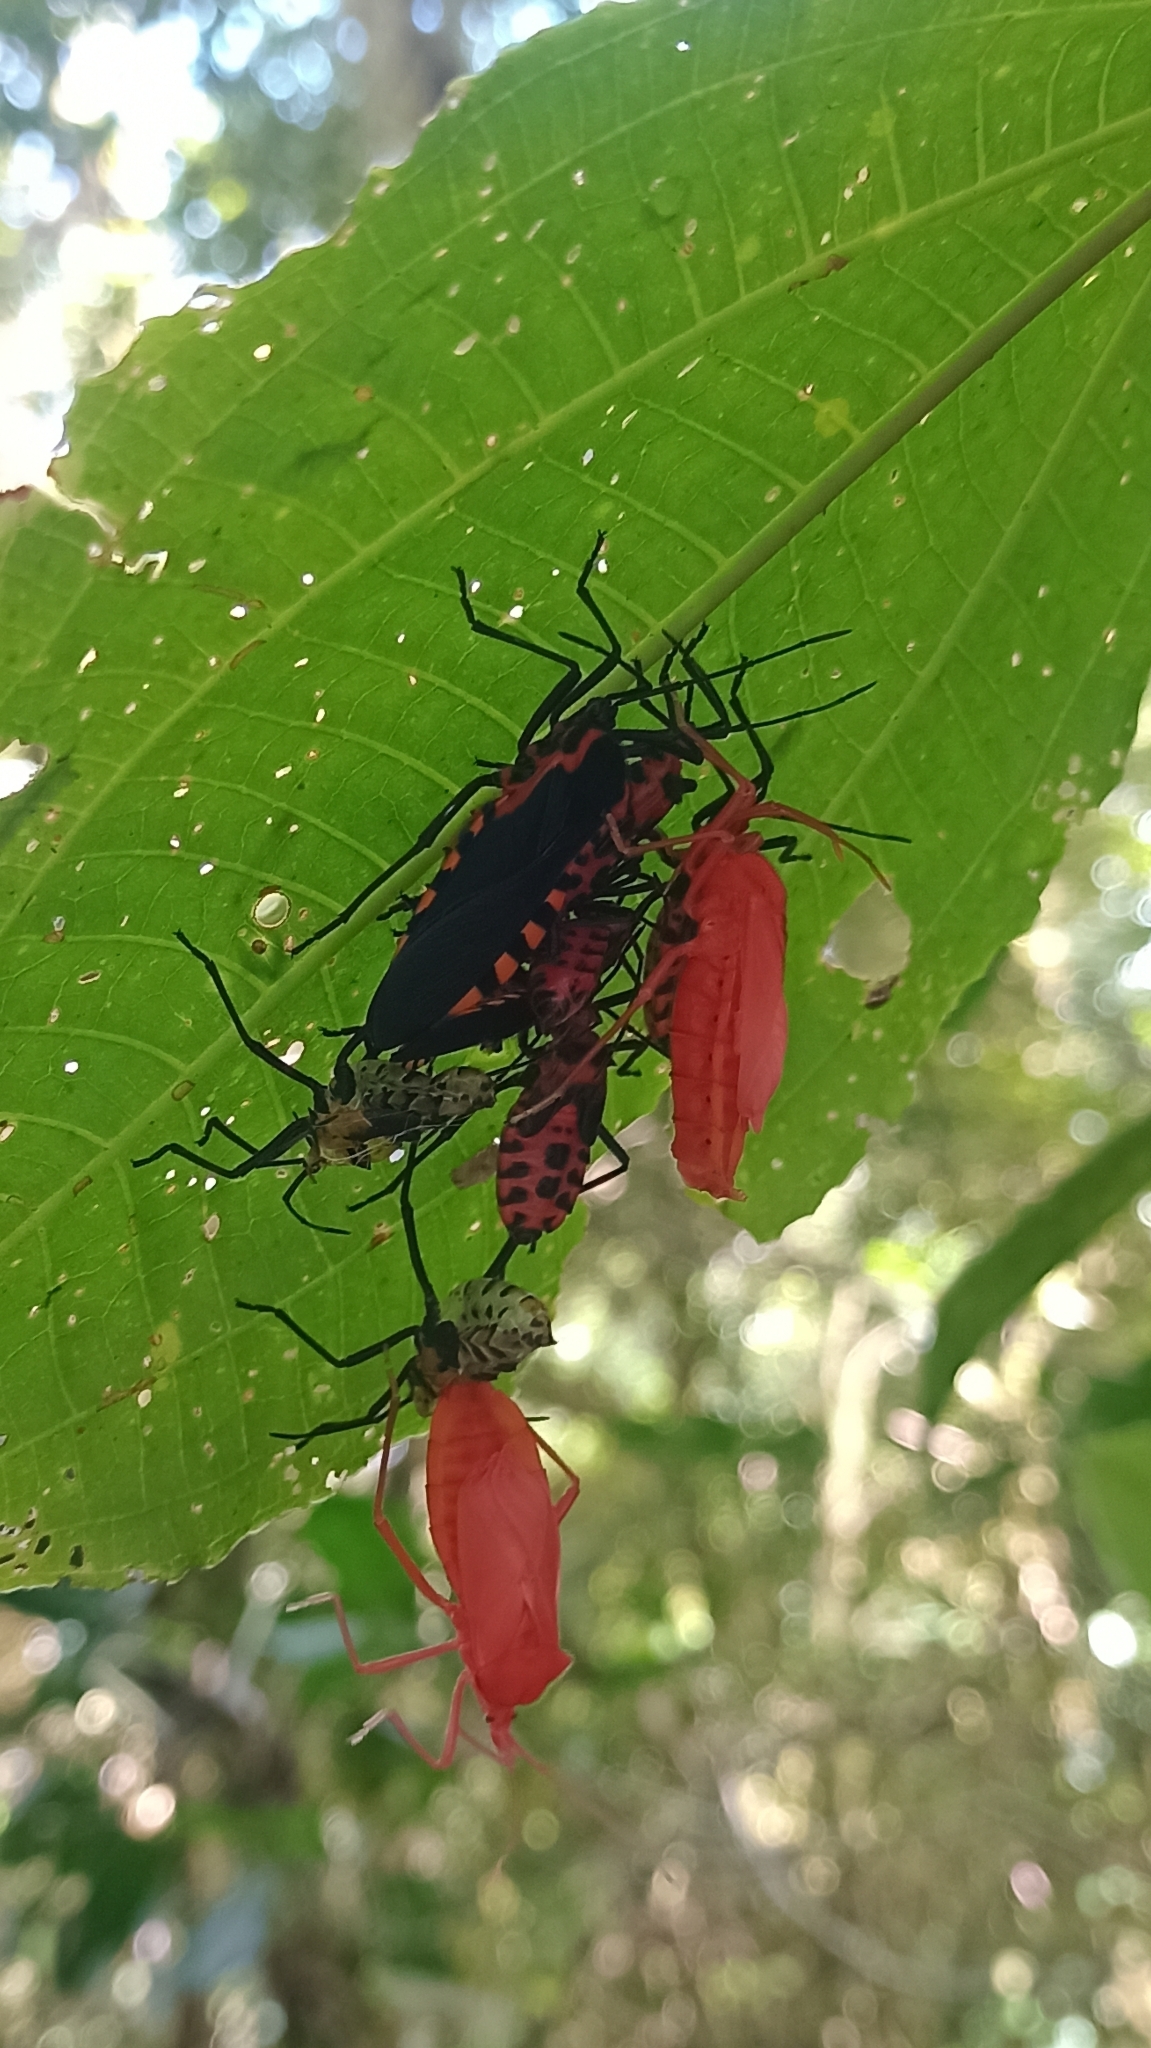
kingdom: Animalia
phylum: Arthropoda
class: Insecta
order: Hemiptera
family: Coreidae
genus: Sephina
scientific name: Sephina rogersi
